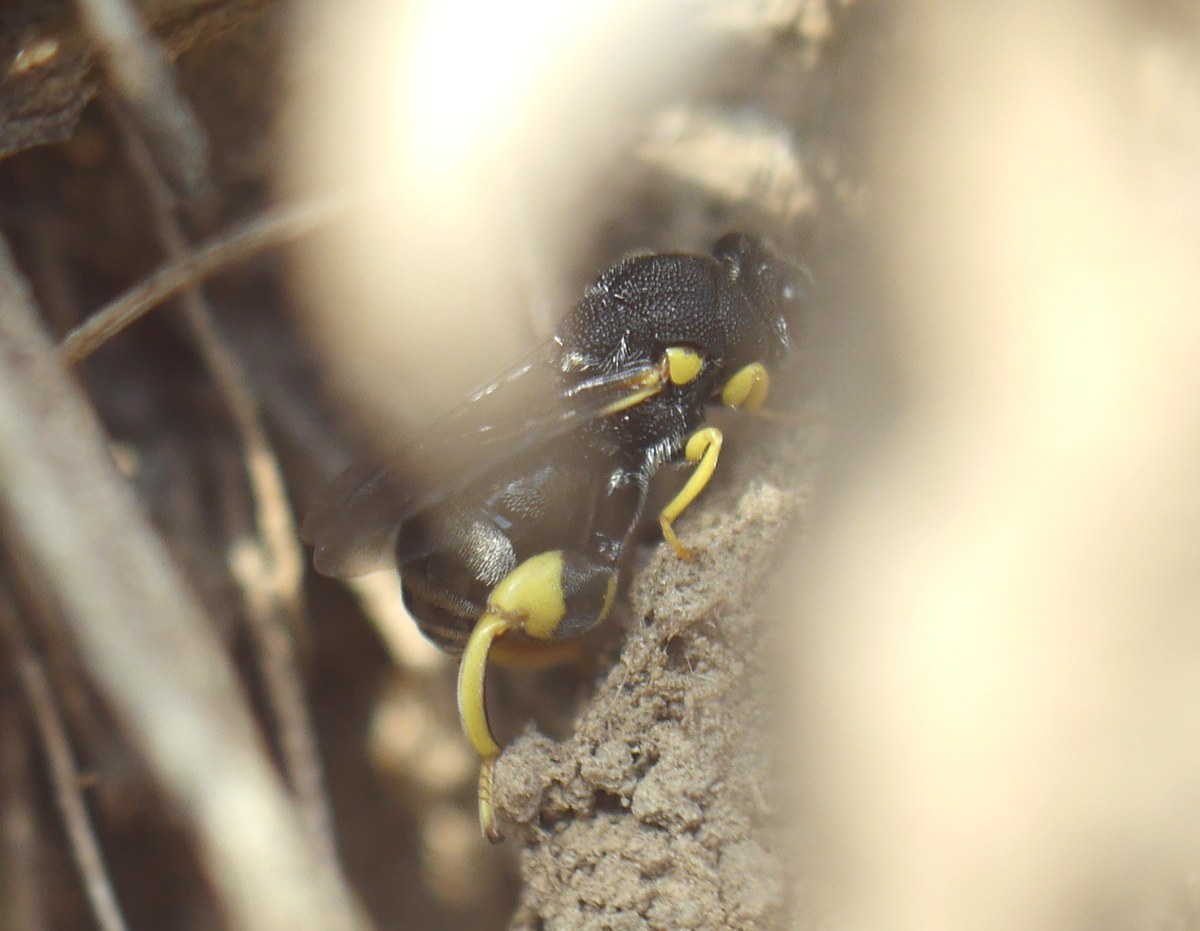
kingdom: Animalia
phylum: Arthropoda
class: Insecta
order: Hymenoptera
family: Chalcididae
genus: Brachymeria
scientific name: Brachymeria femorata
